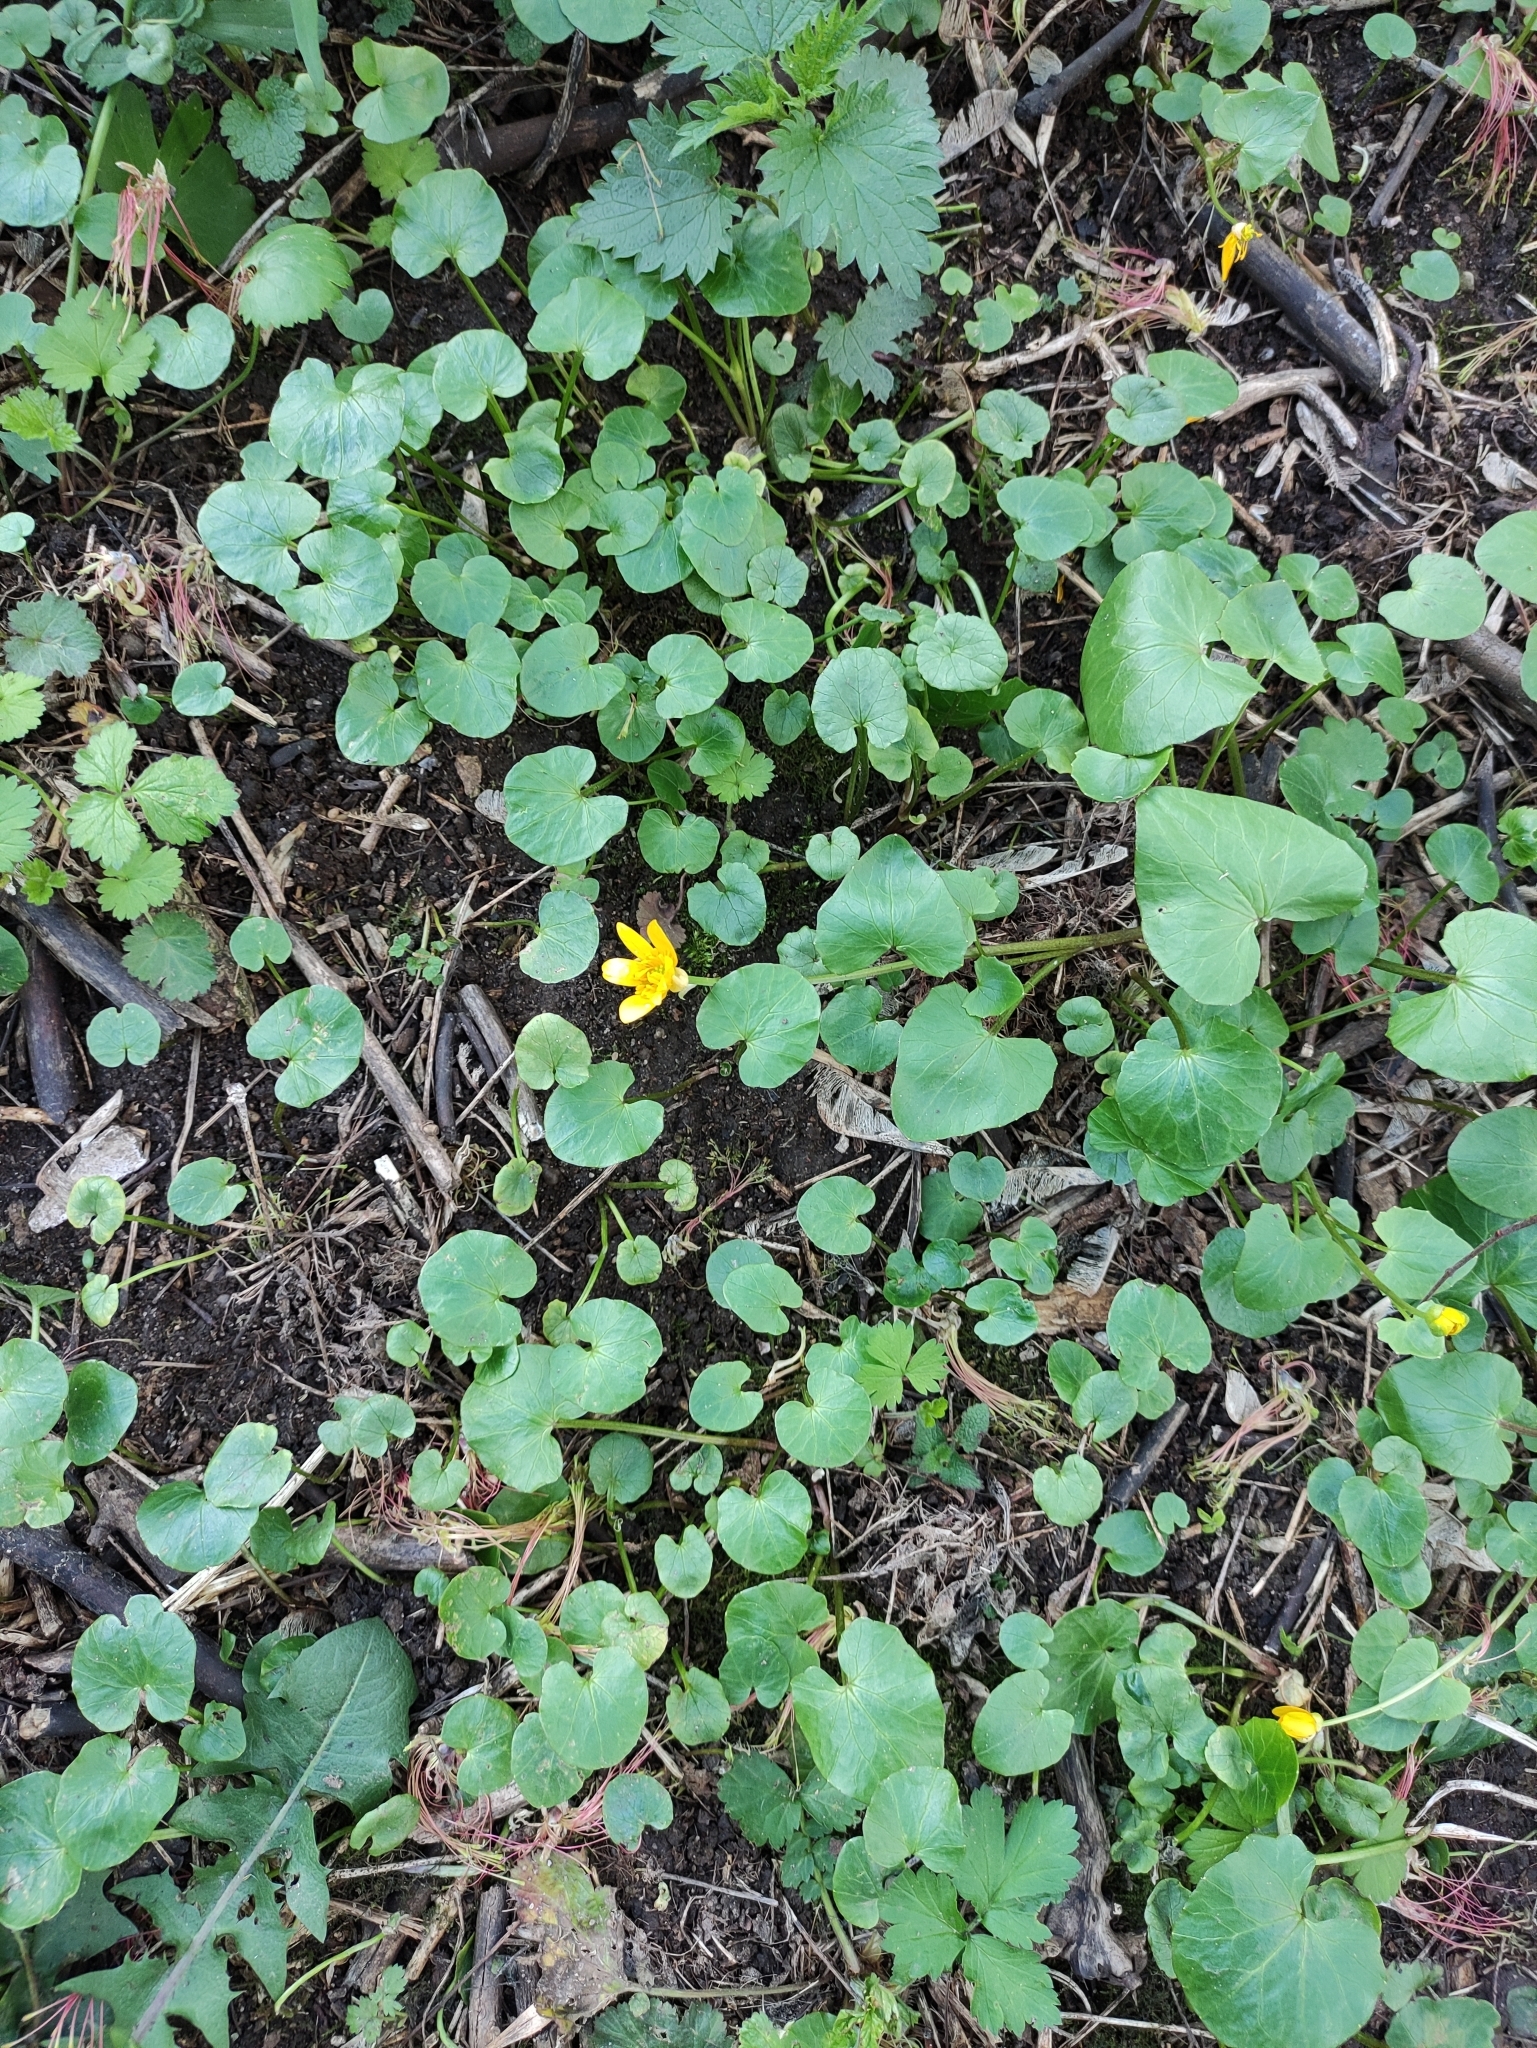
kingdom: Plantae
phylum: Tracheophyta
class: Magnoliopsida
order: Ranunculales
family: Ranunculaceae
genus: Ficaria
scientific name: Ficaria verna
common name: Lesser celandine
